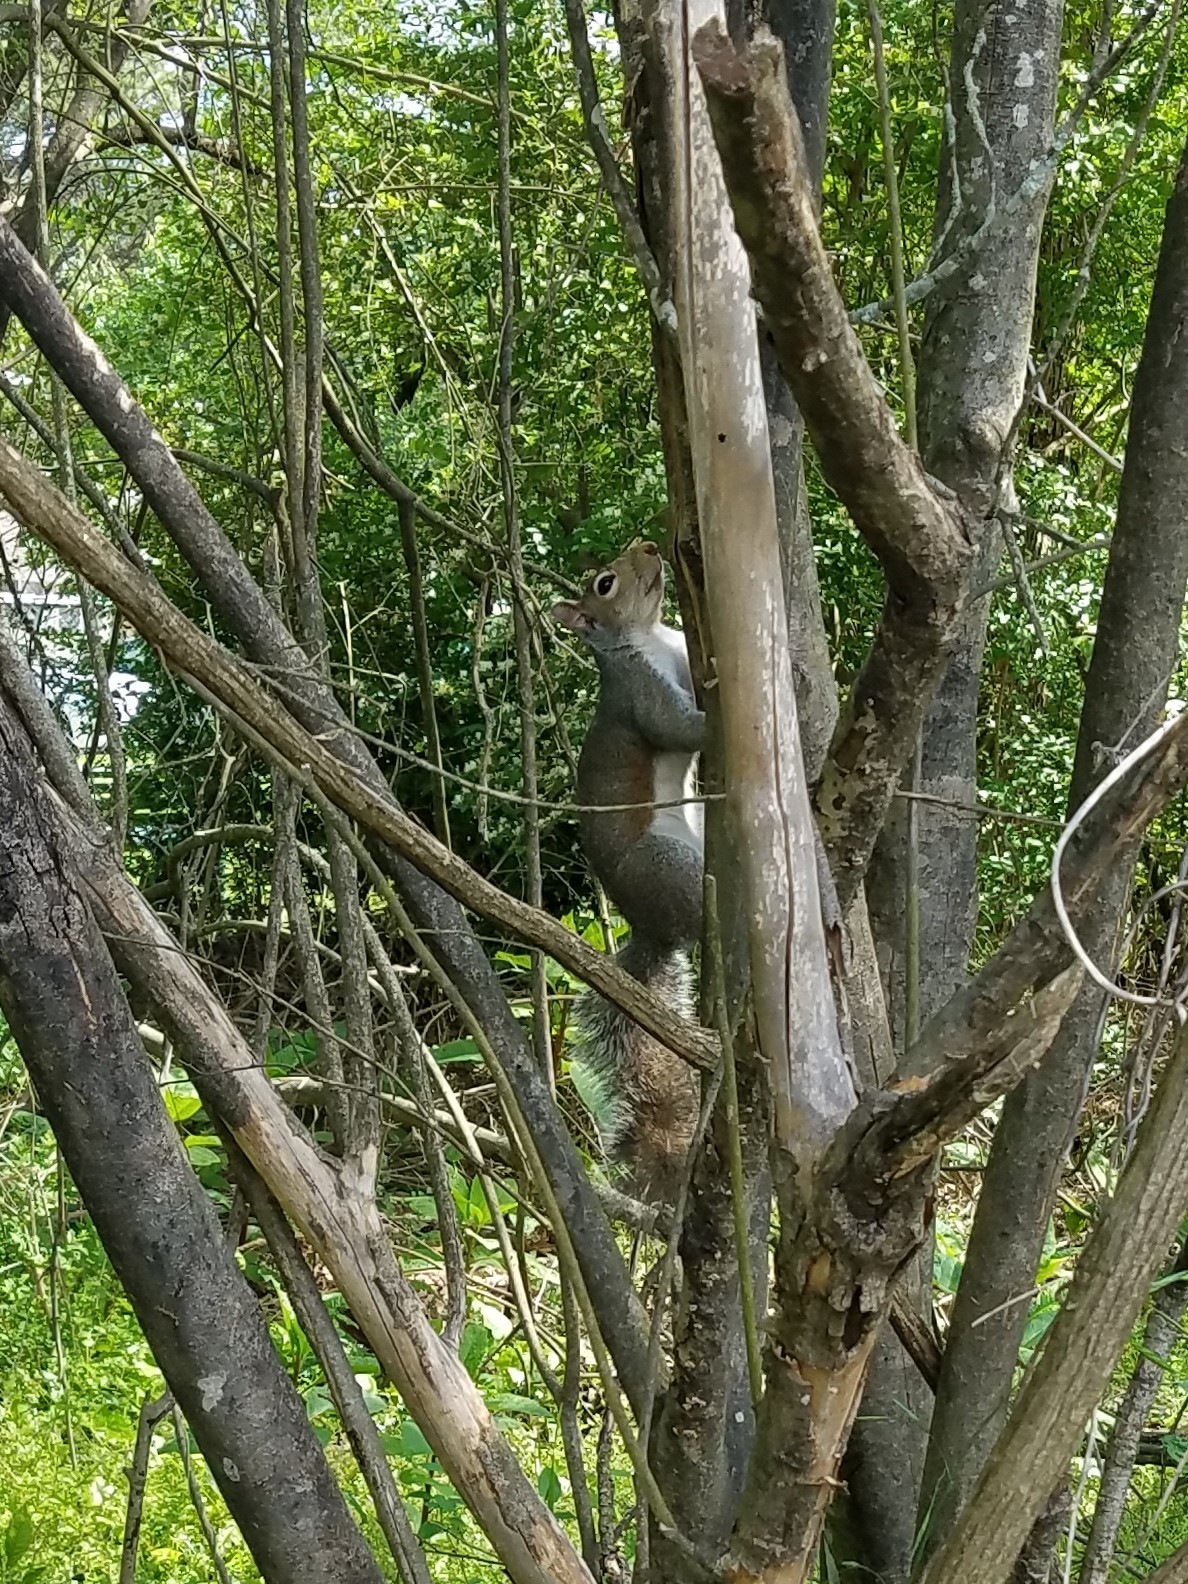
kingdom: Animalia
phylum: Chordata
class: Mammalia
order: Rodentia
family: Sciuridae
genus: Sciurus
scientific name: Sciurus carolinensis
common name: Eastern gray squirrel
